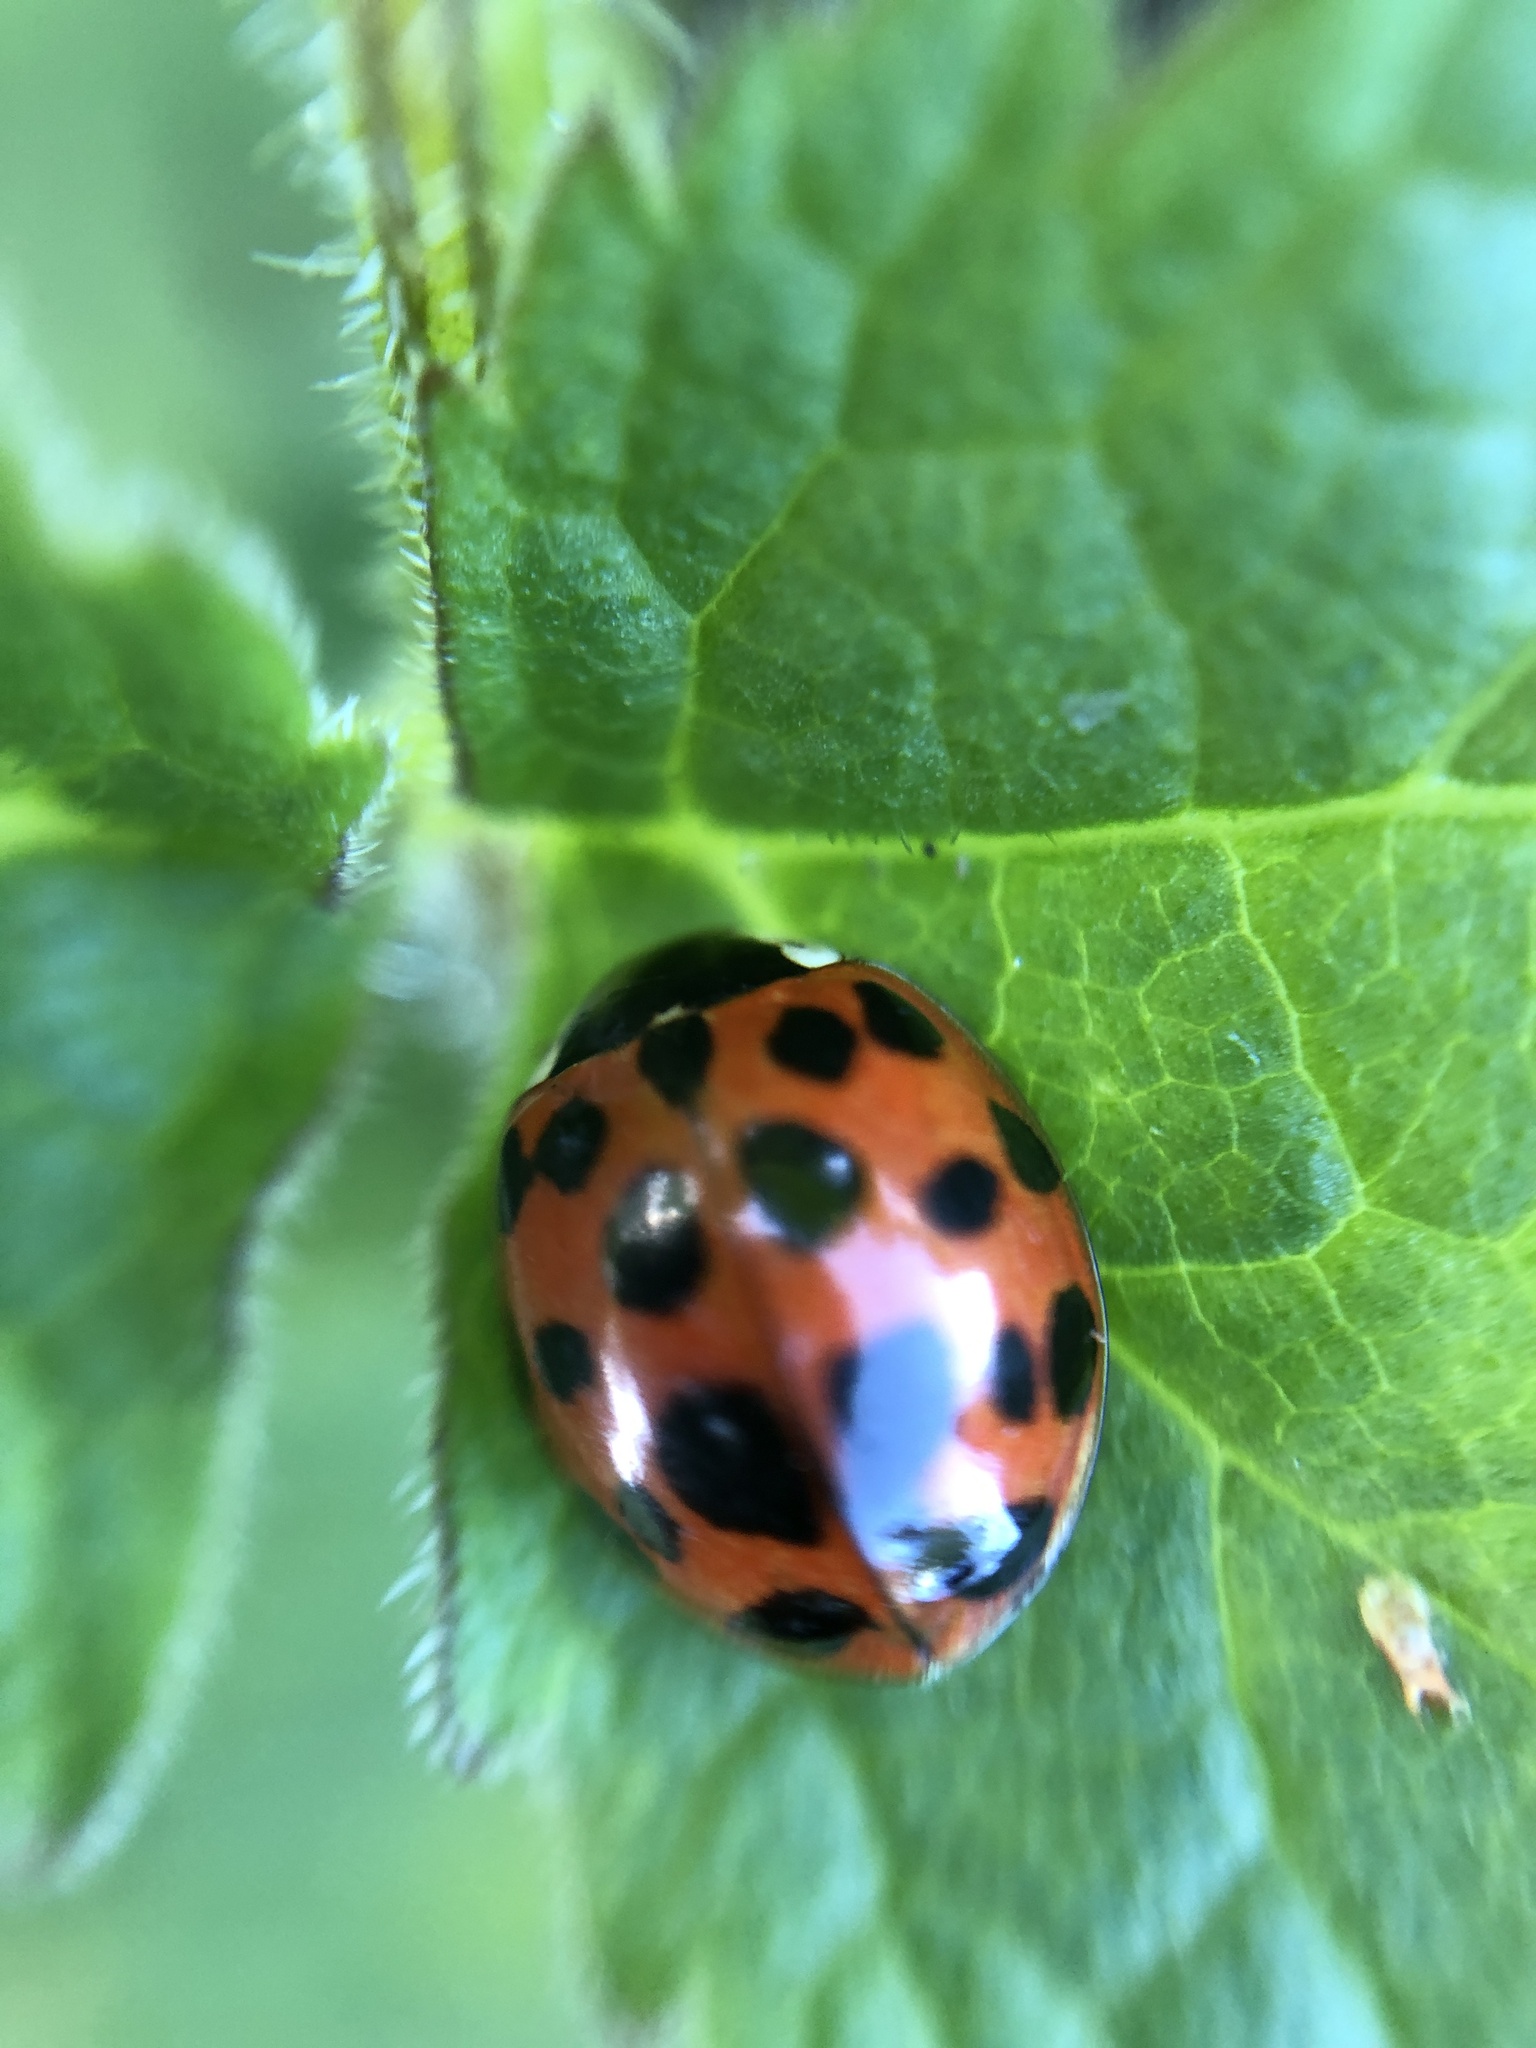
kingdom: Animalia
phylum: Arthropoda
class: Insecta
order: Coleoptera
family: Coccinellidae
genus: Harmonia
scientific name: Harmonia axyridis
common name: Harlequin ladybird
